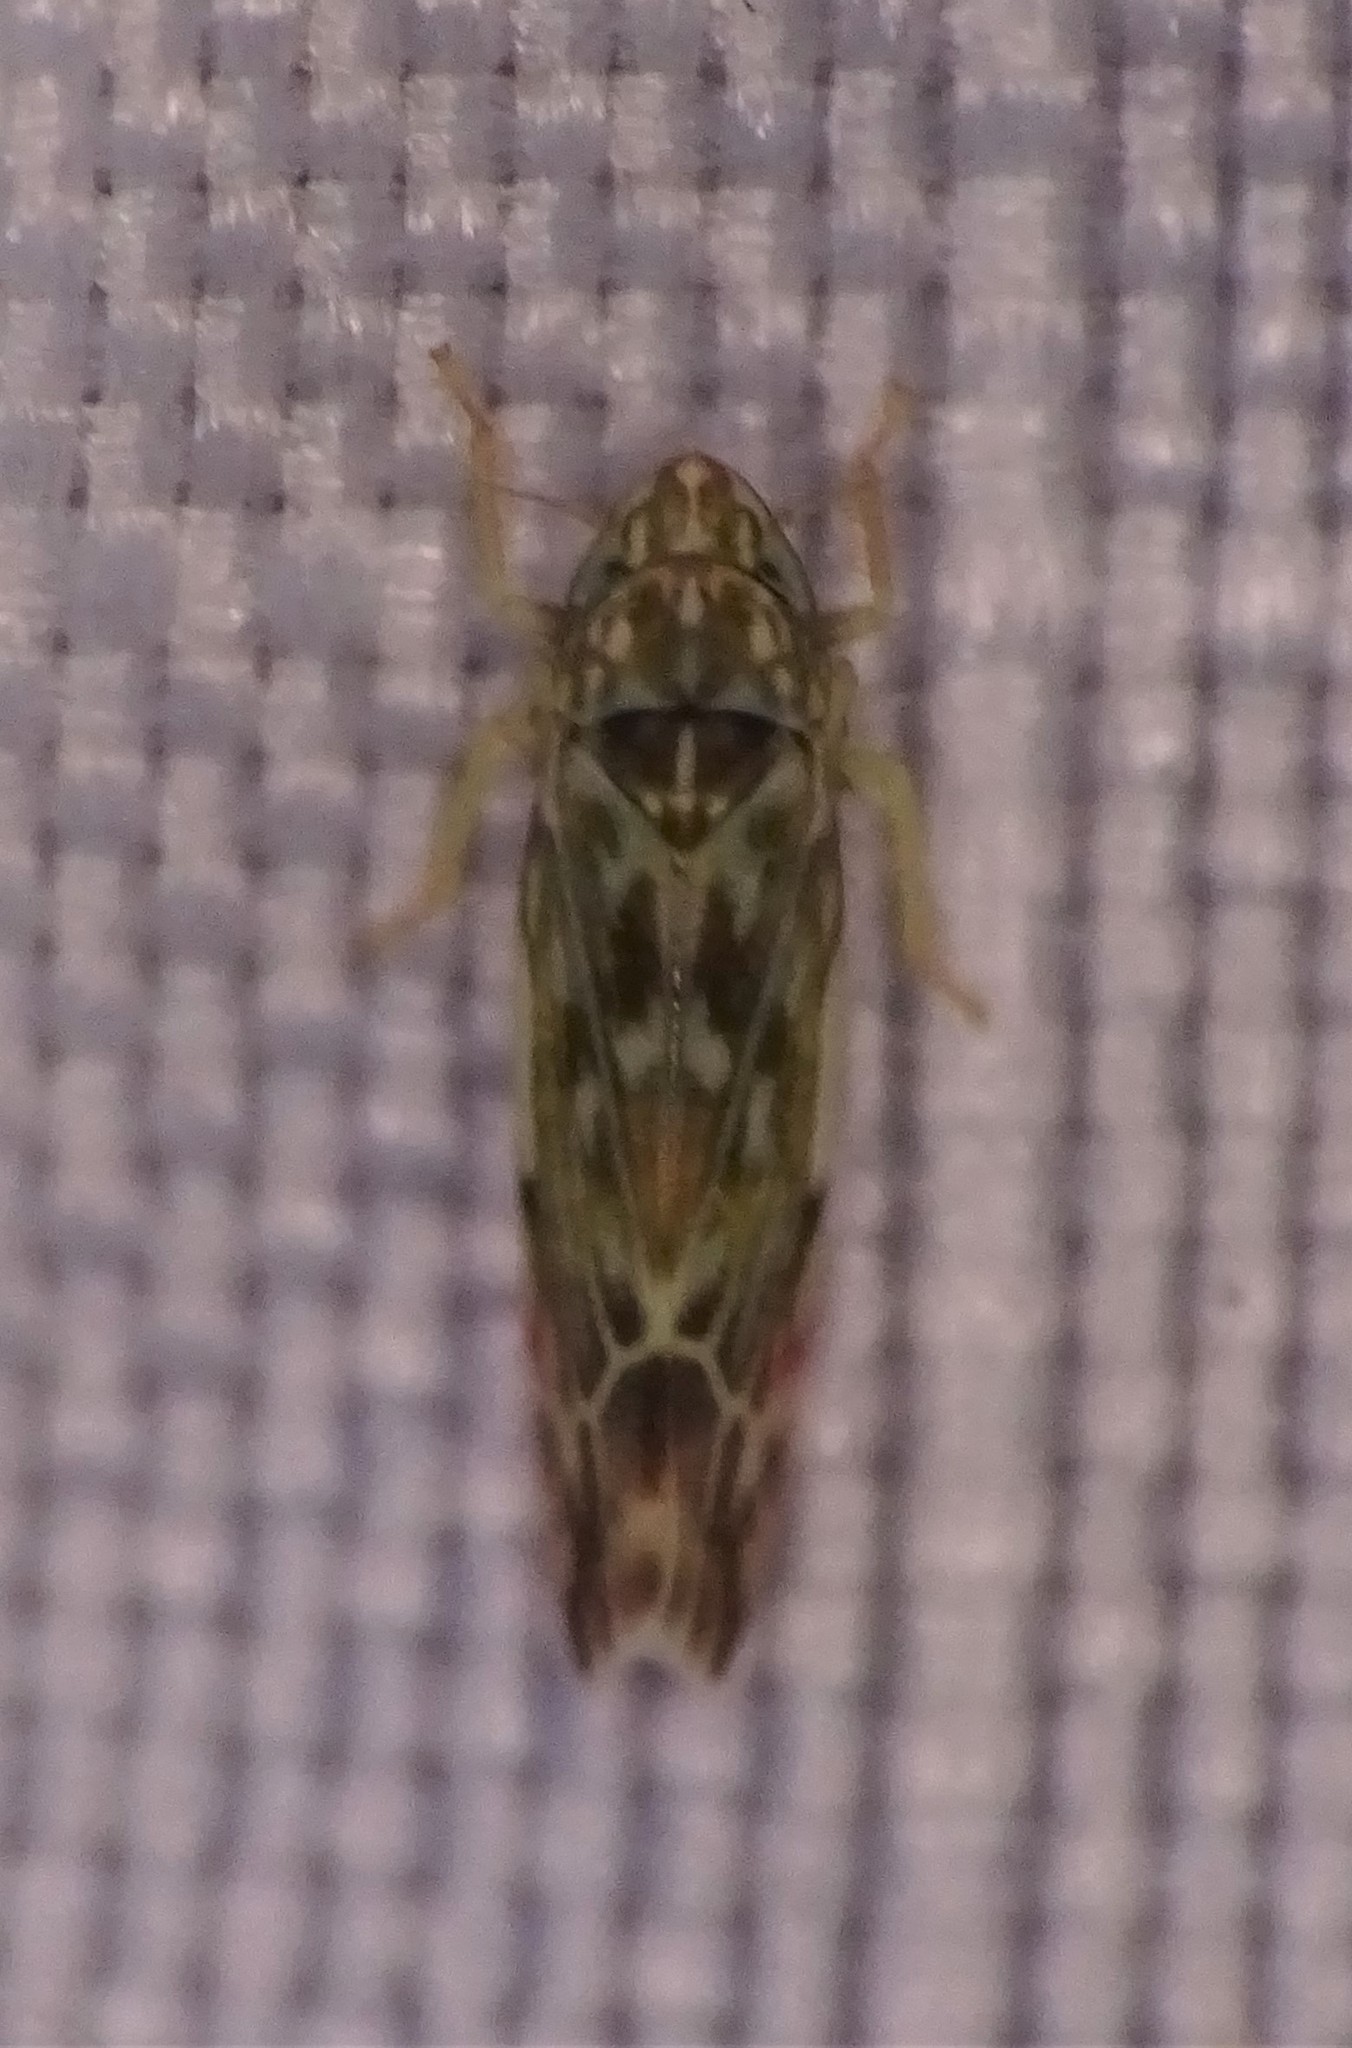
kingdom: Animalia
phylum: Arthropoda
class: Insecta
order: Hemiptera
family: Cicadellidae
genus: Erasmoneura
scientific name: Erasmoneura vulnerata
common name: The wounded leafhopper
